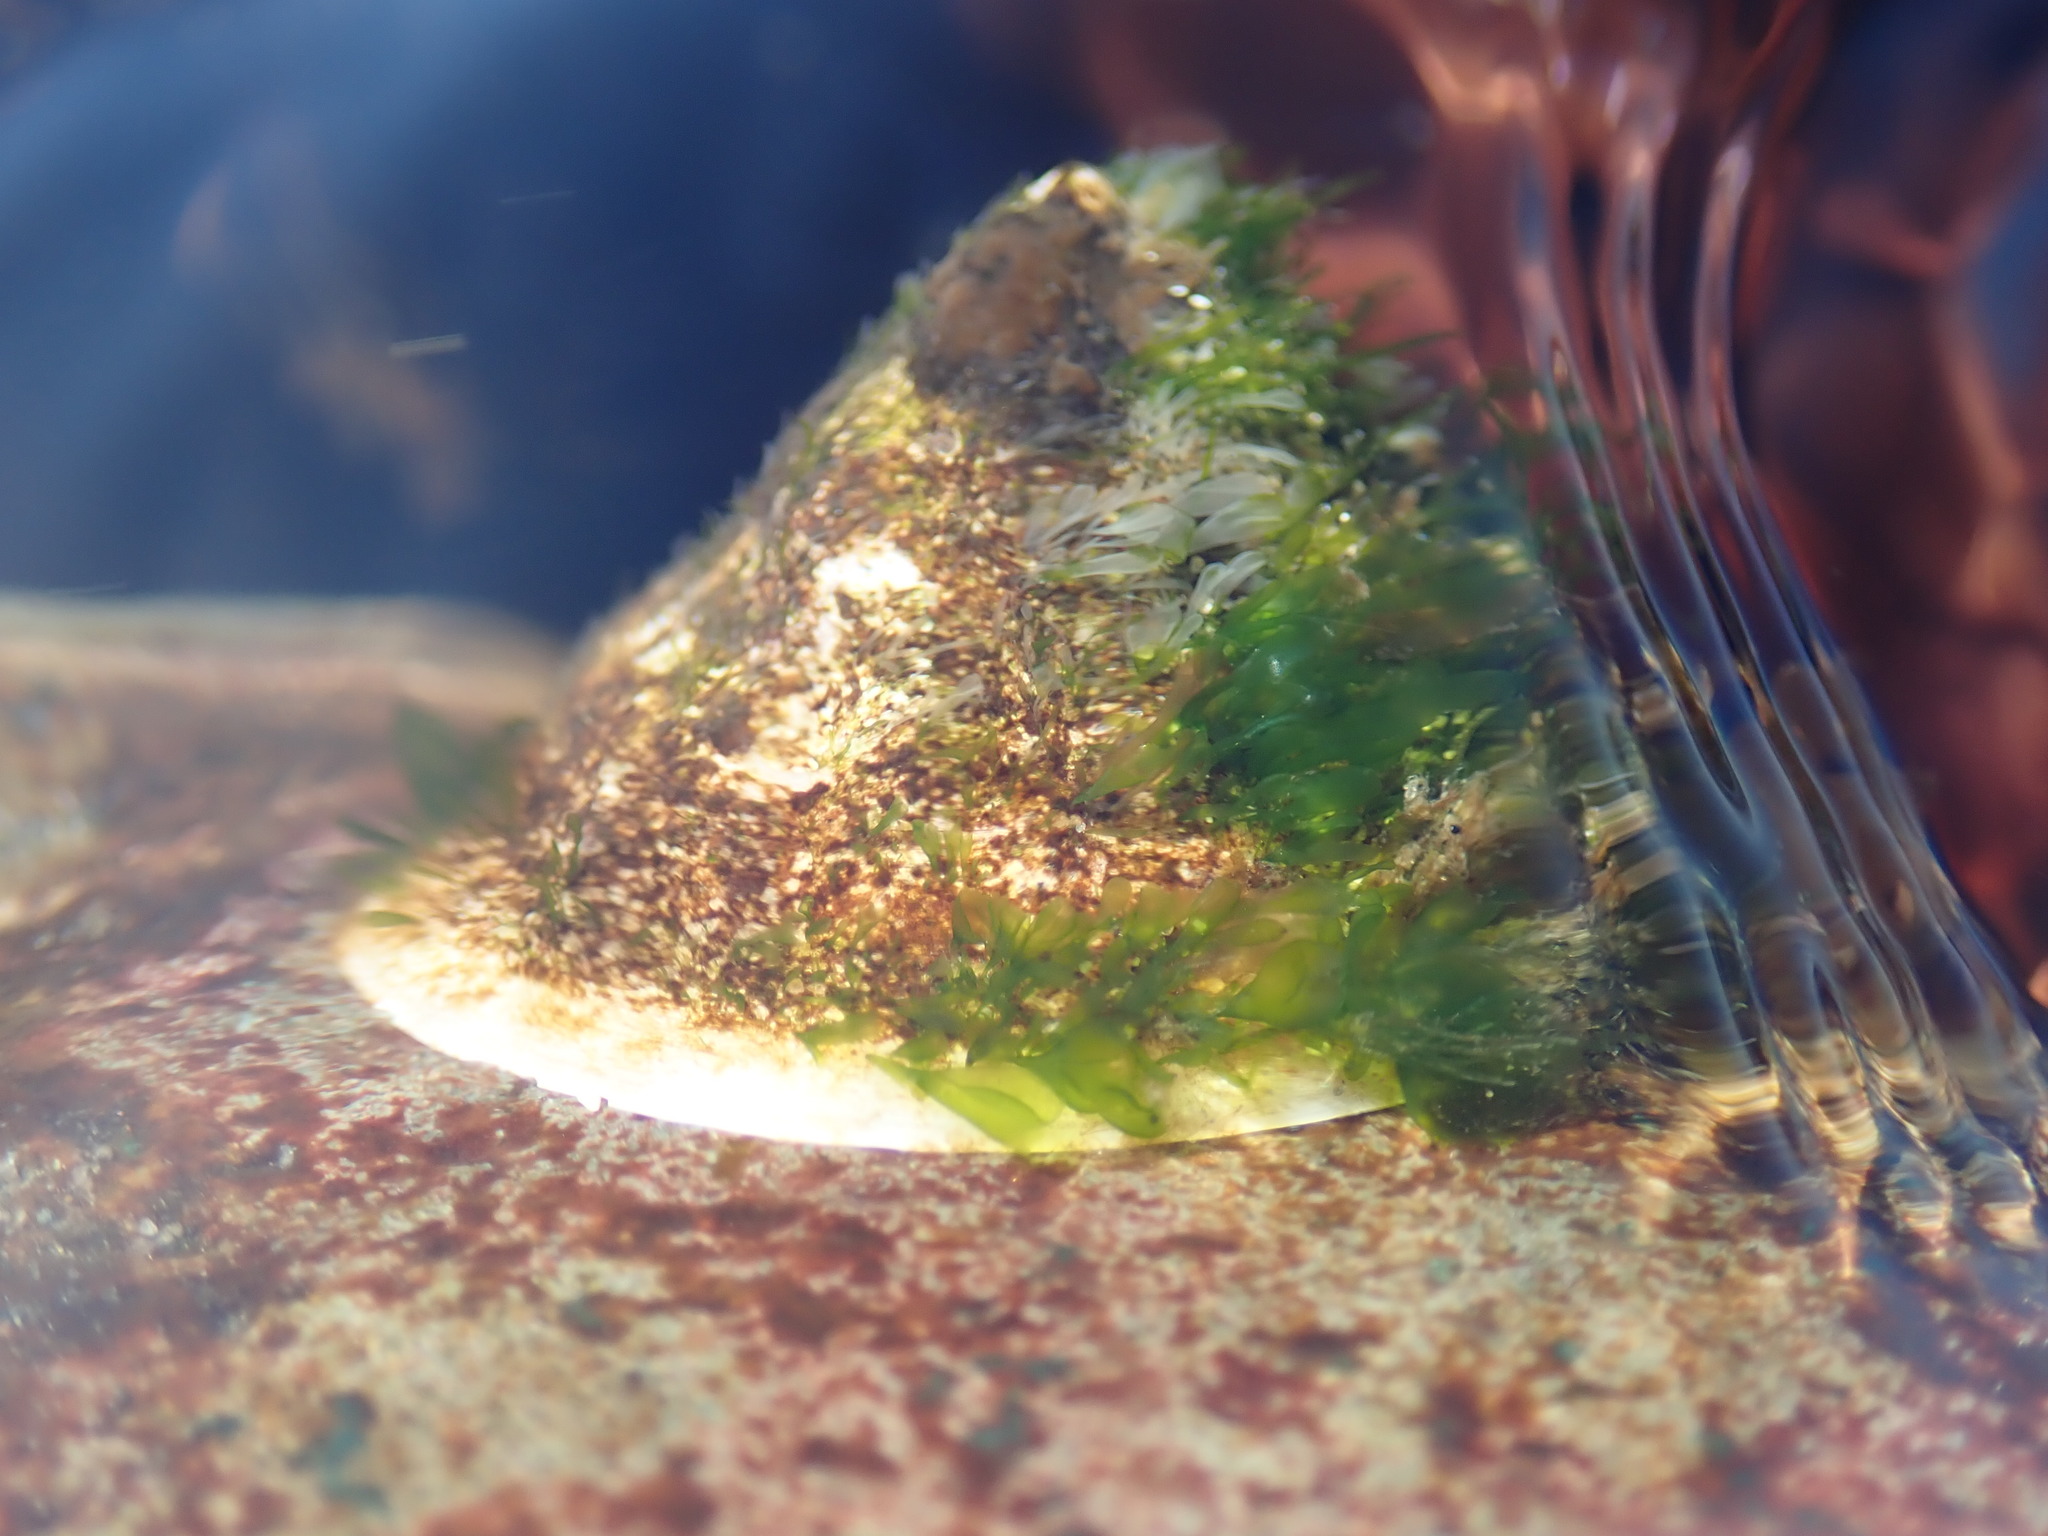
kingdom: Animalia
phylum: Mollusca
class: Gastropoda
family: Acmaeidae
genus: Acmaea
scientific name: Acmaea mitra
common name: Pacific white cap limpet
